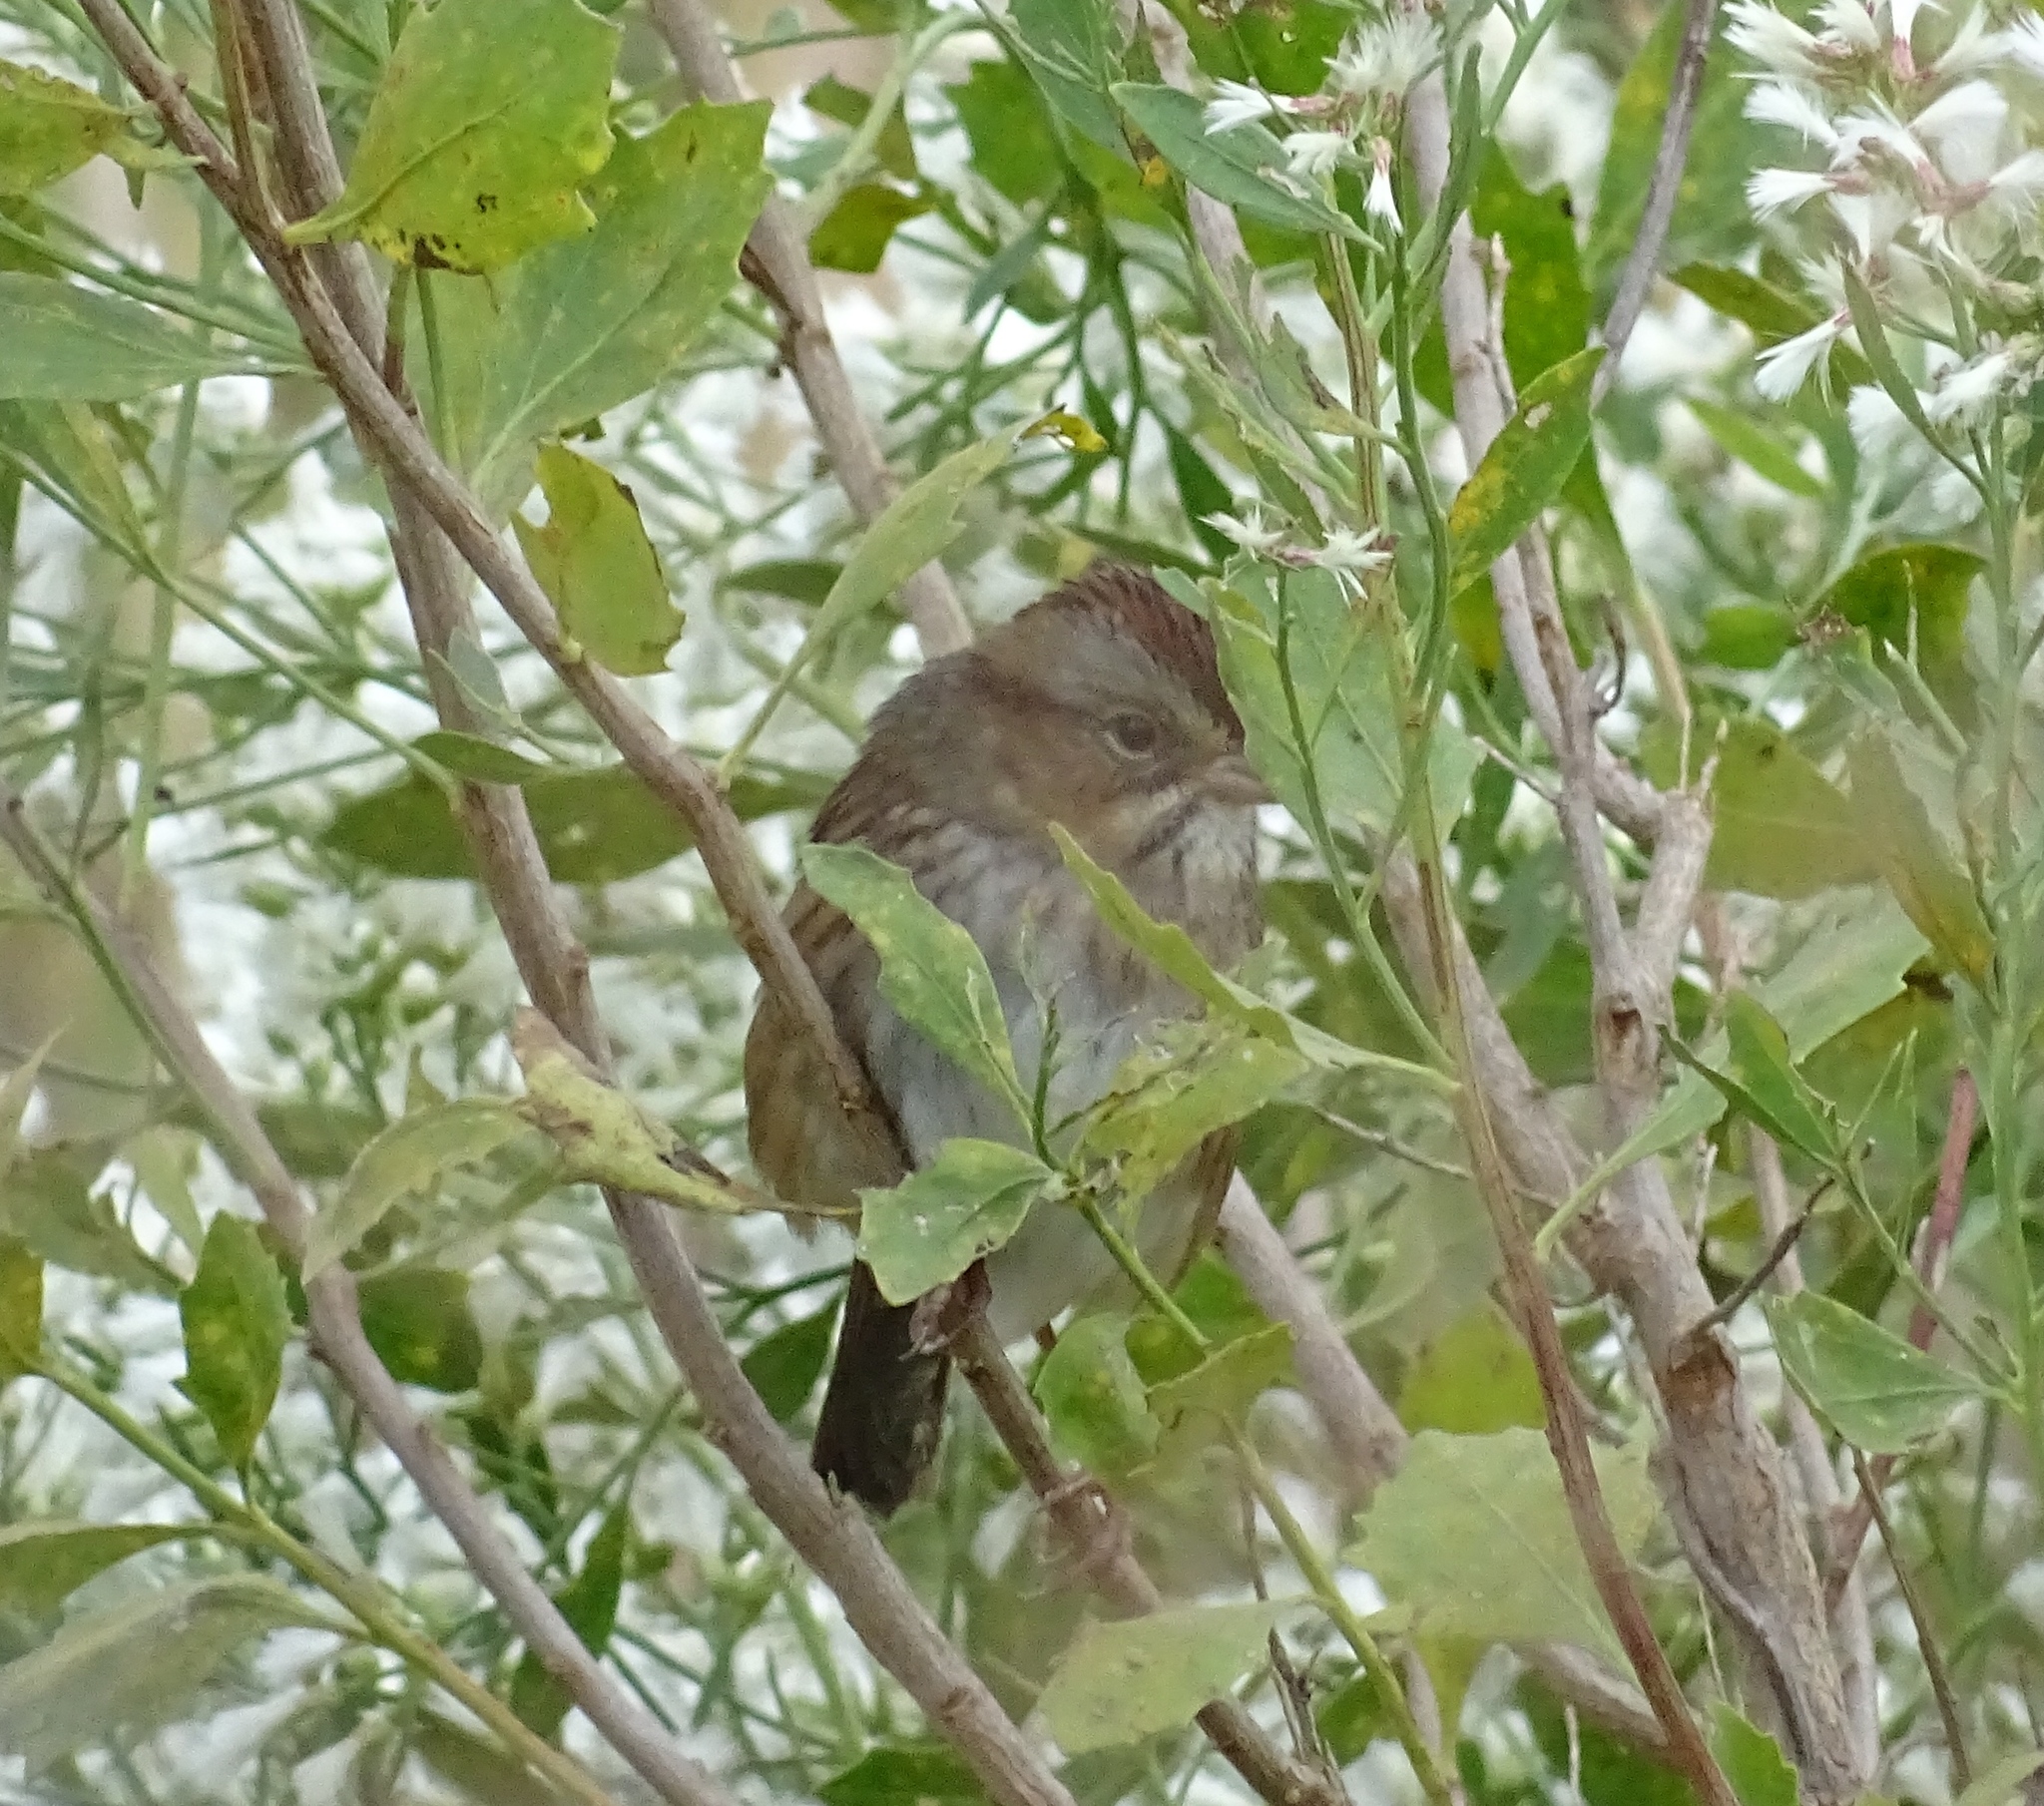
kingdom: Animalia
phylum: Chordata
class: Aves
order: Passeriformes
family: Passerellidae
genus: Melospiza
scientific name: Melospiza georgiana
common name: Swamp sparrow
